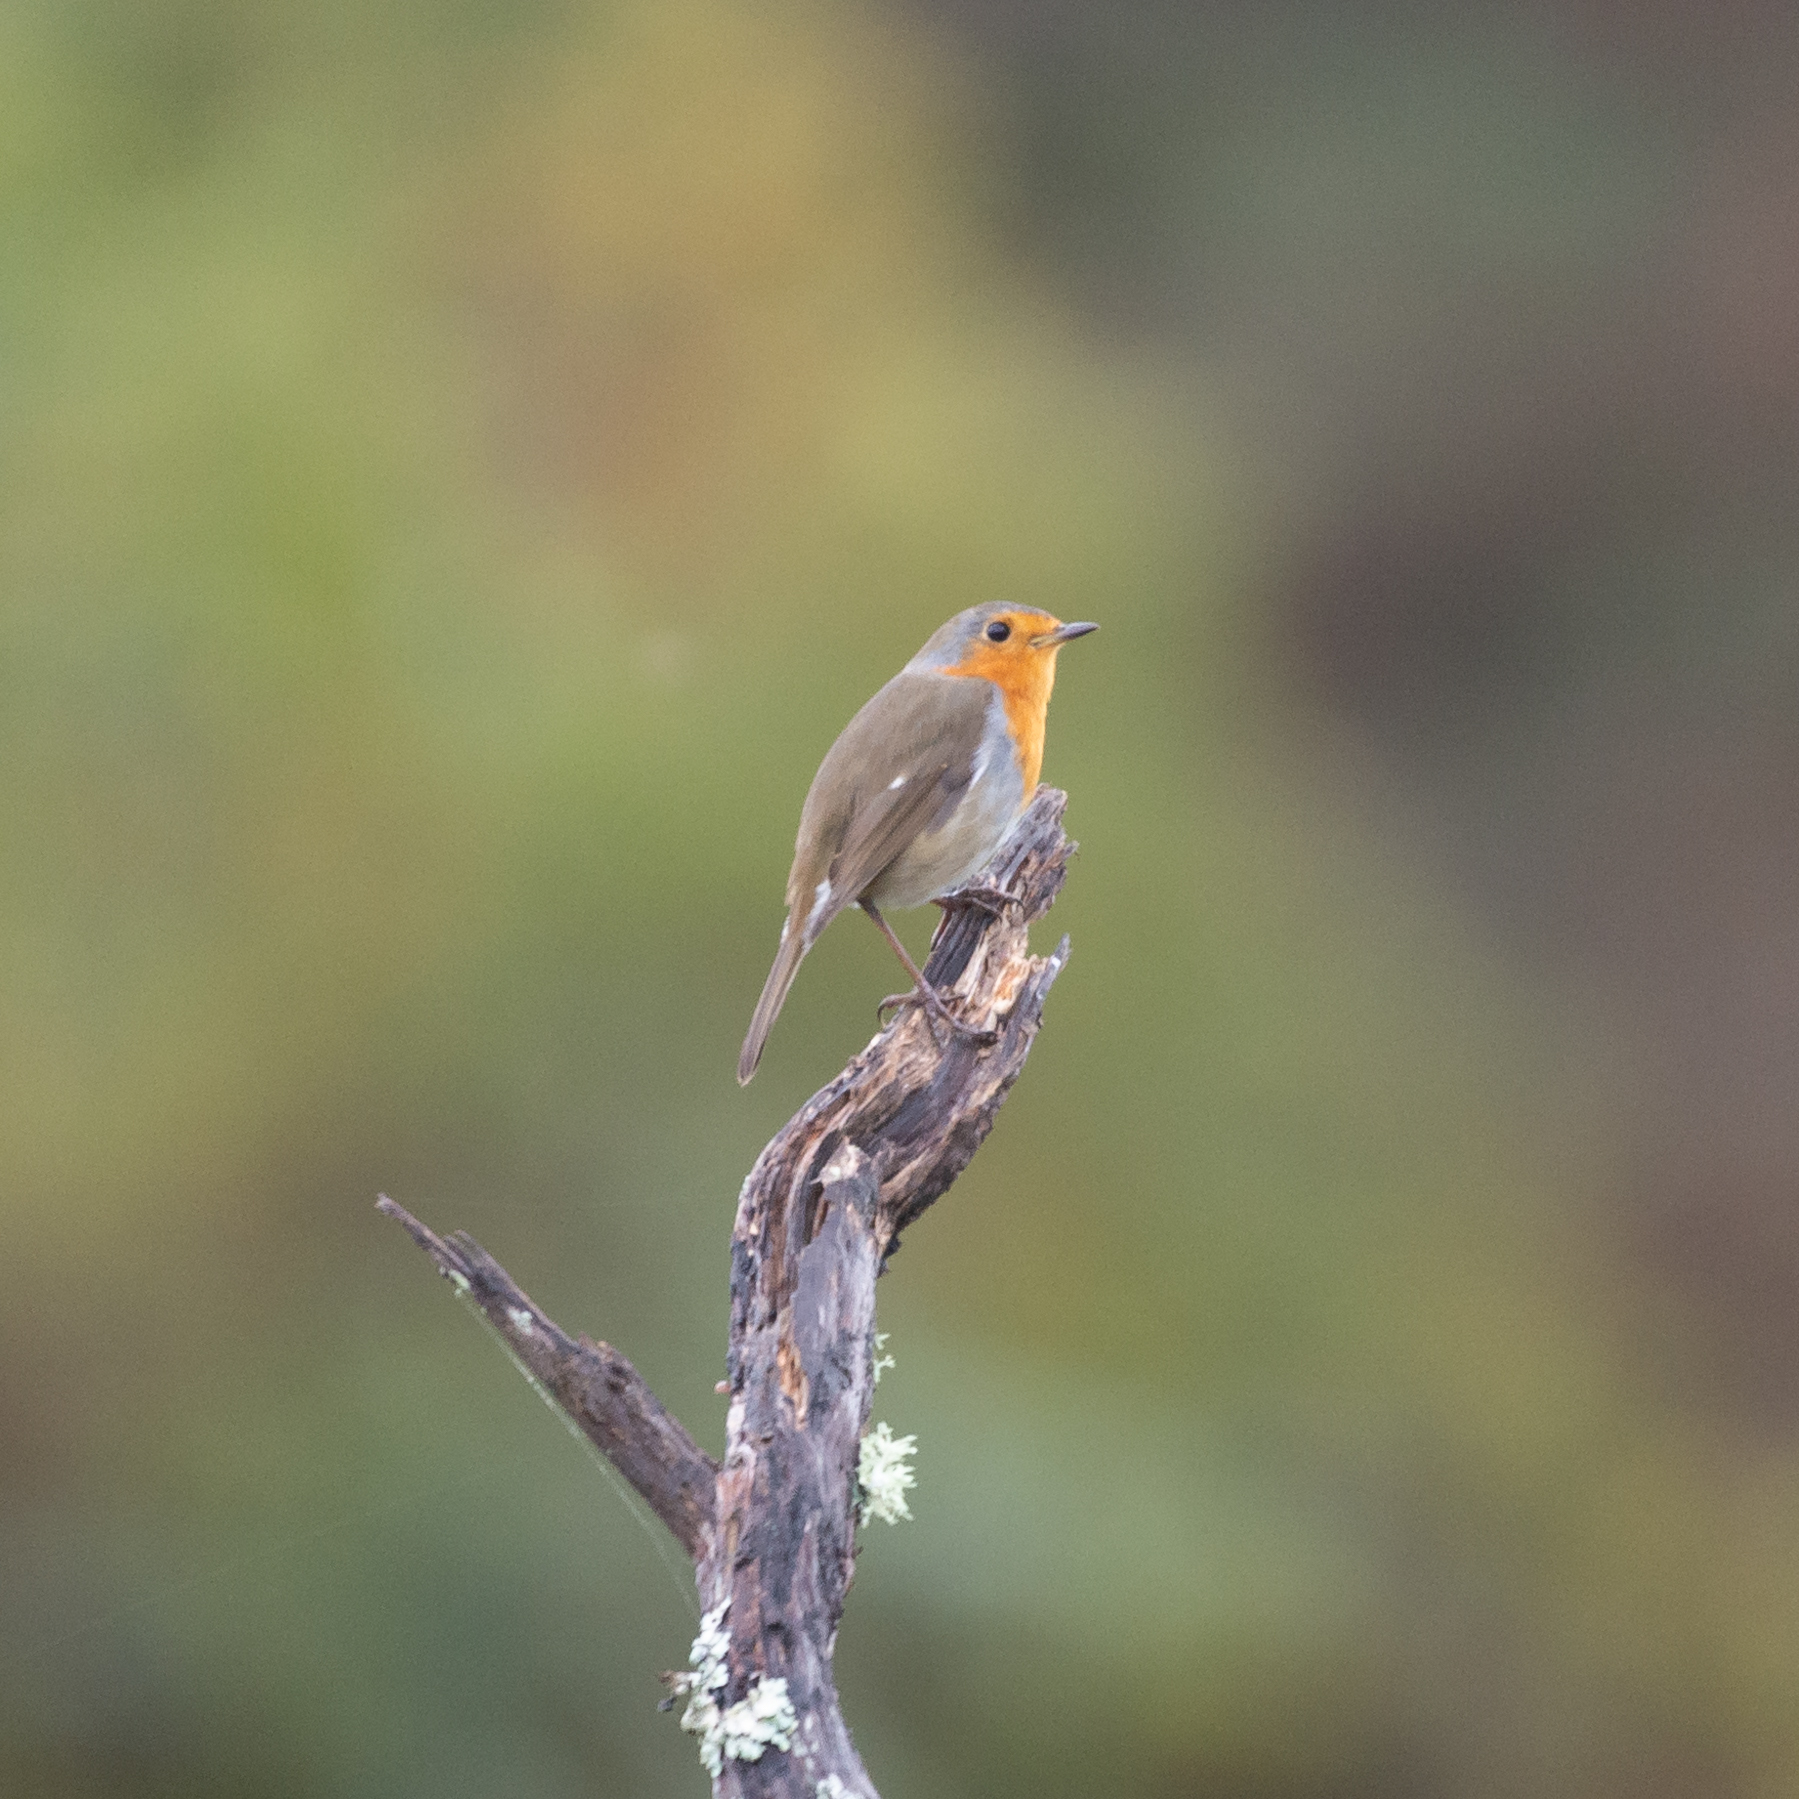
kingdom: Animalia
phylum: Chordata
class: Aves
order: Passeriformes
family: Muscicapidae
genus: Erithacus
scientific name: Erithacus rubecula
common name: European robin
